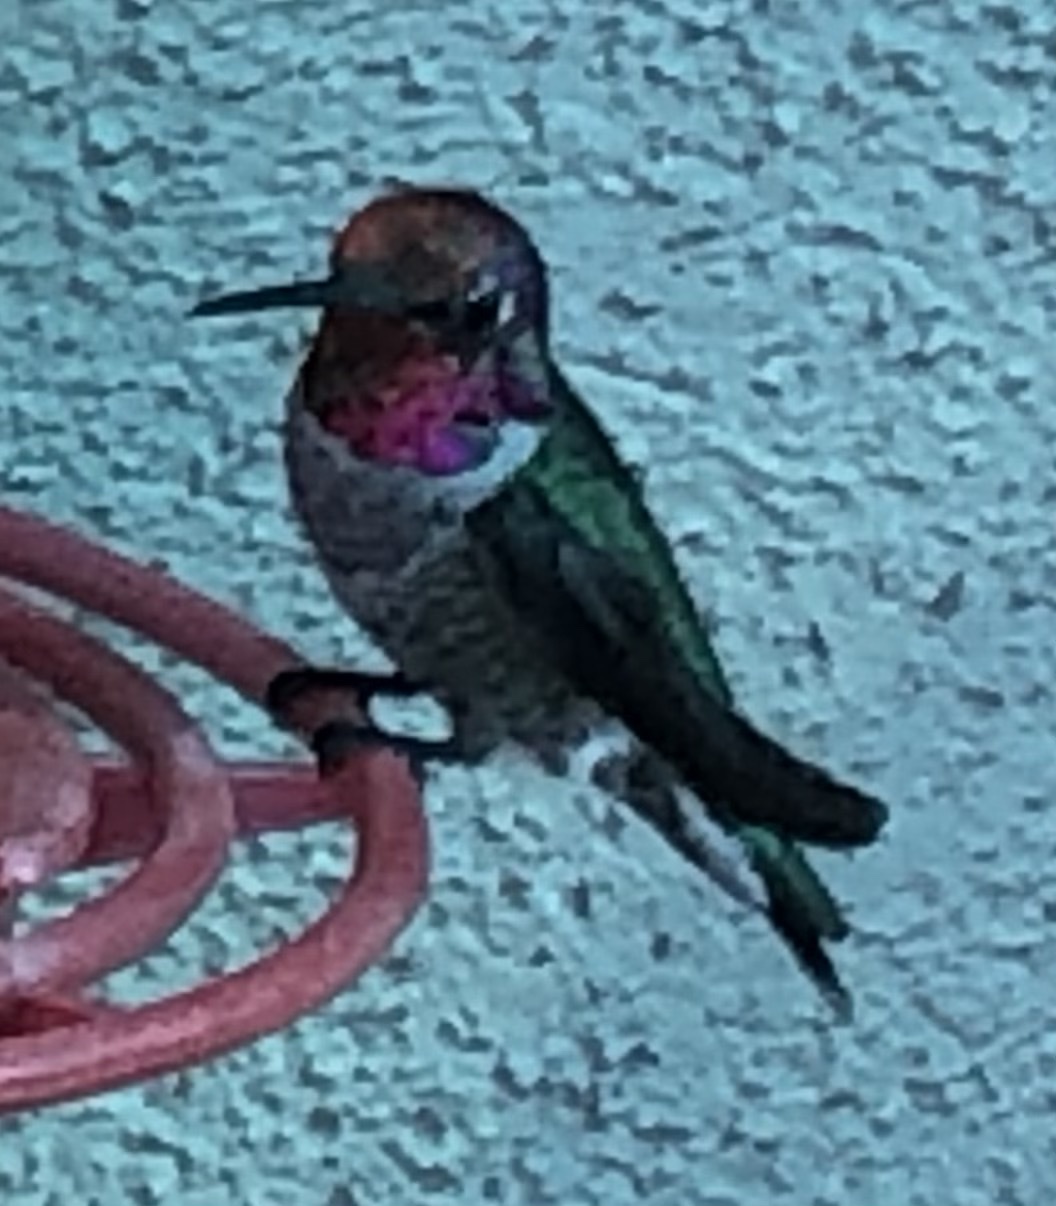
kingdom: Animalia
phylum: Chordata
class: Aves
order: Apodiformes
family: Trochilidae
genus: Calypte
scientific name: Calypte anna
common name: Anna's hummingbird
